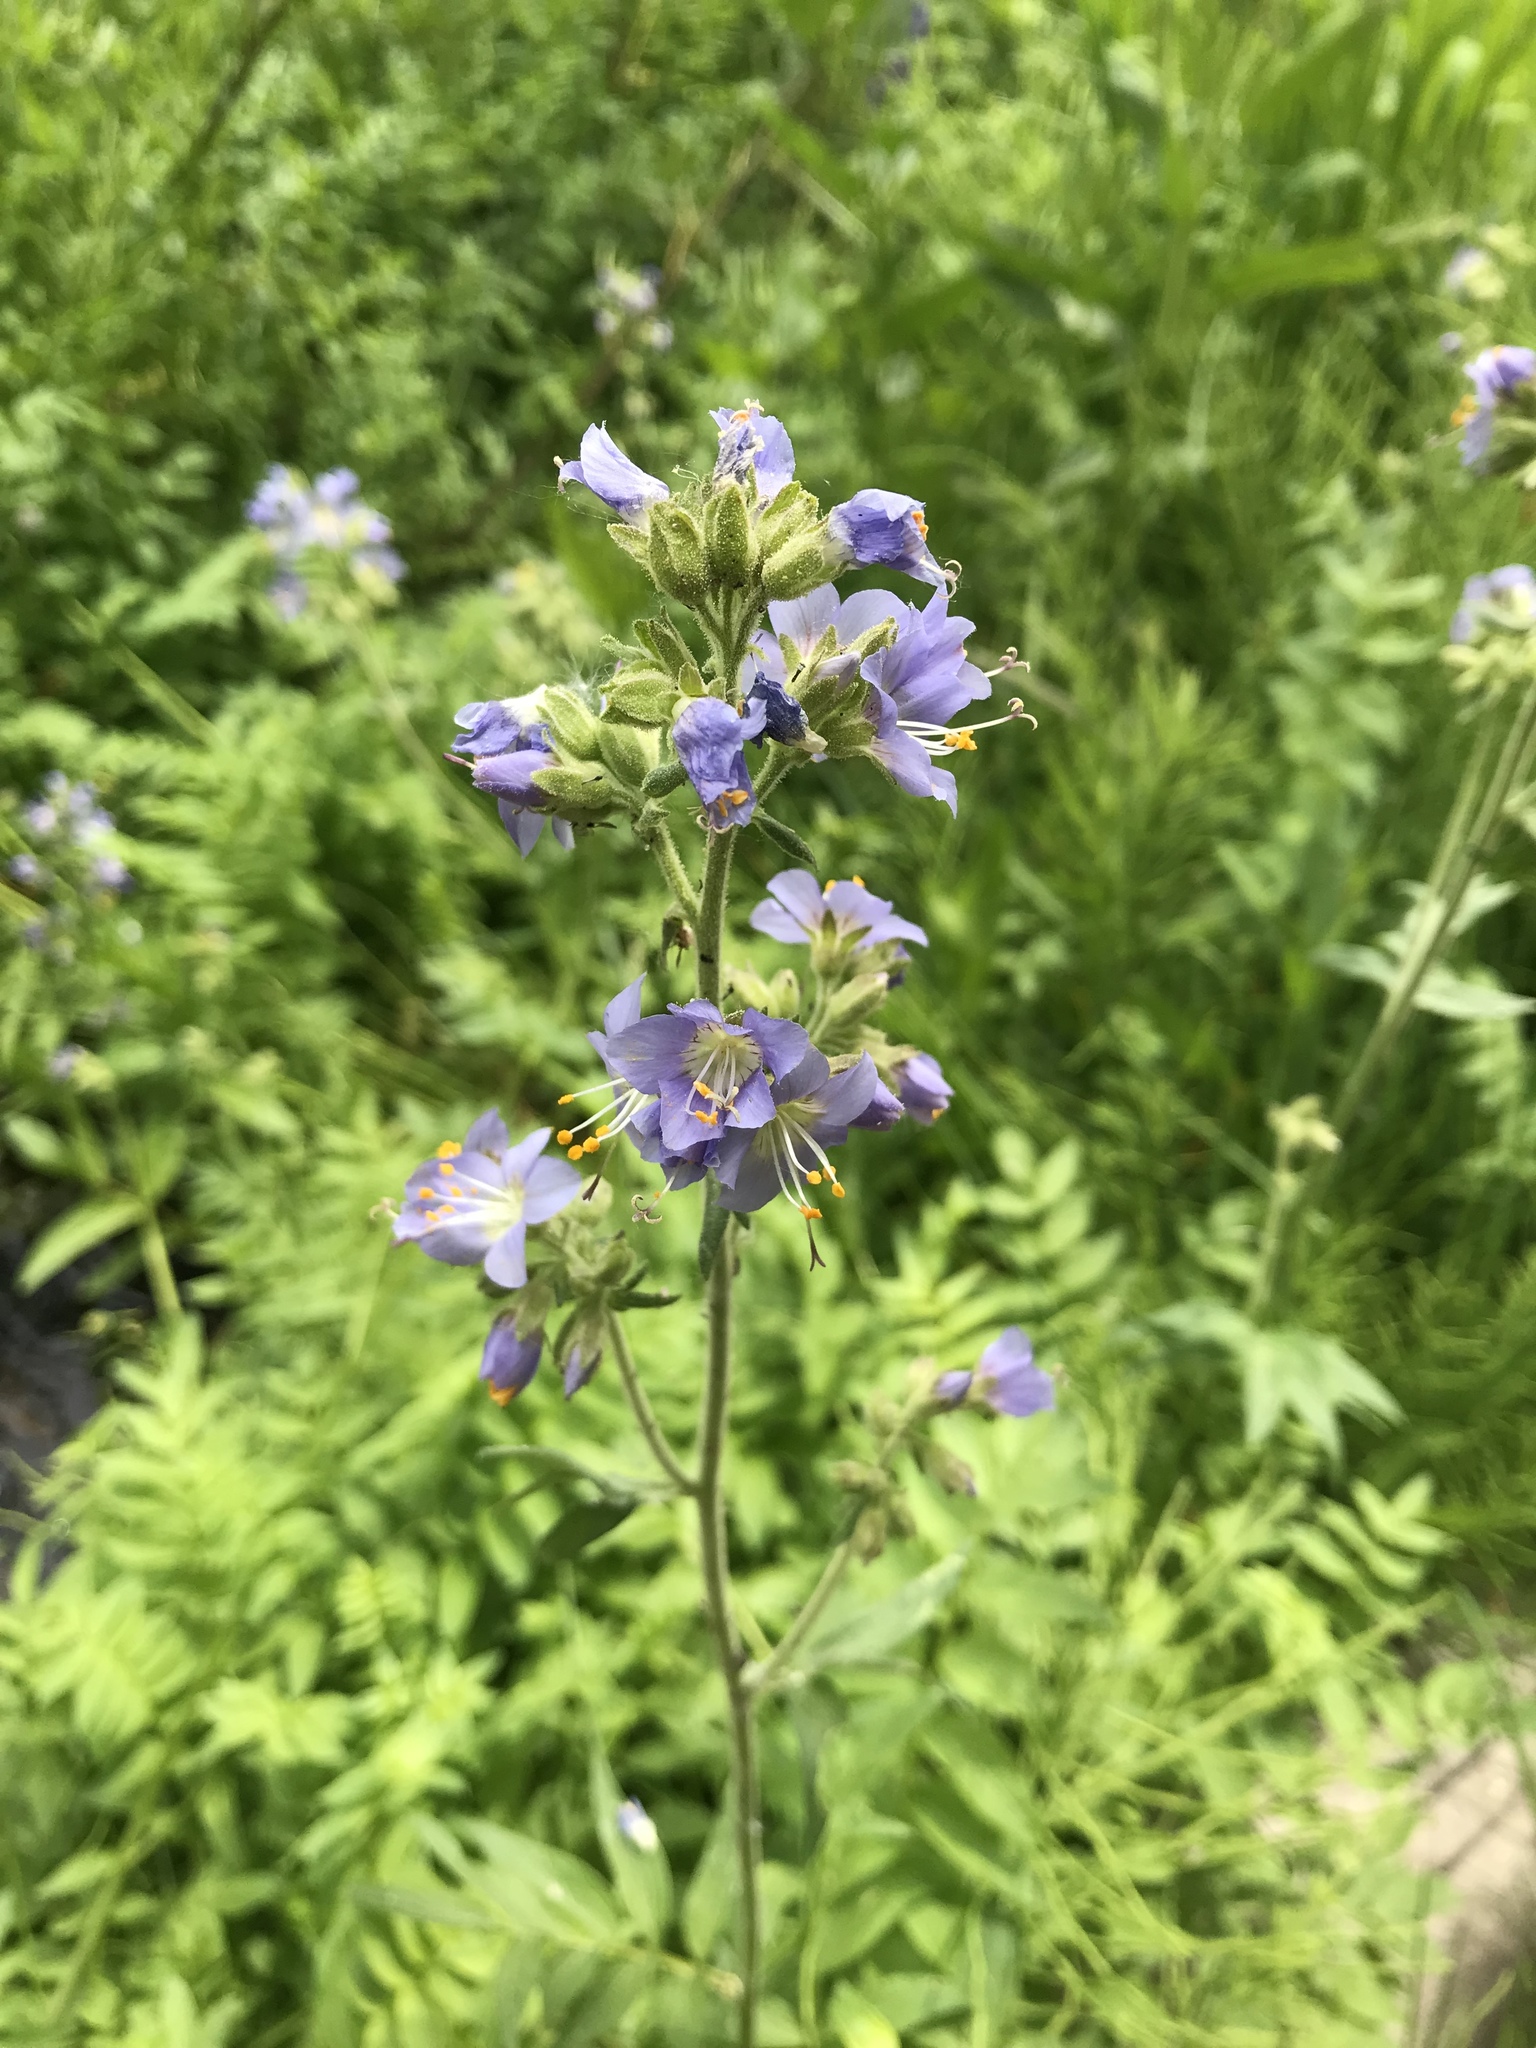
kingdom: Plantae
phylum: Tracheophyta
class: Magnoliopsida
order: Ericales
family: Polemoniaceae
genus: Polemonium
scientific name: Polemonium occidentale
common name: Western jacob's-ladder
